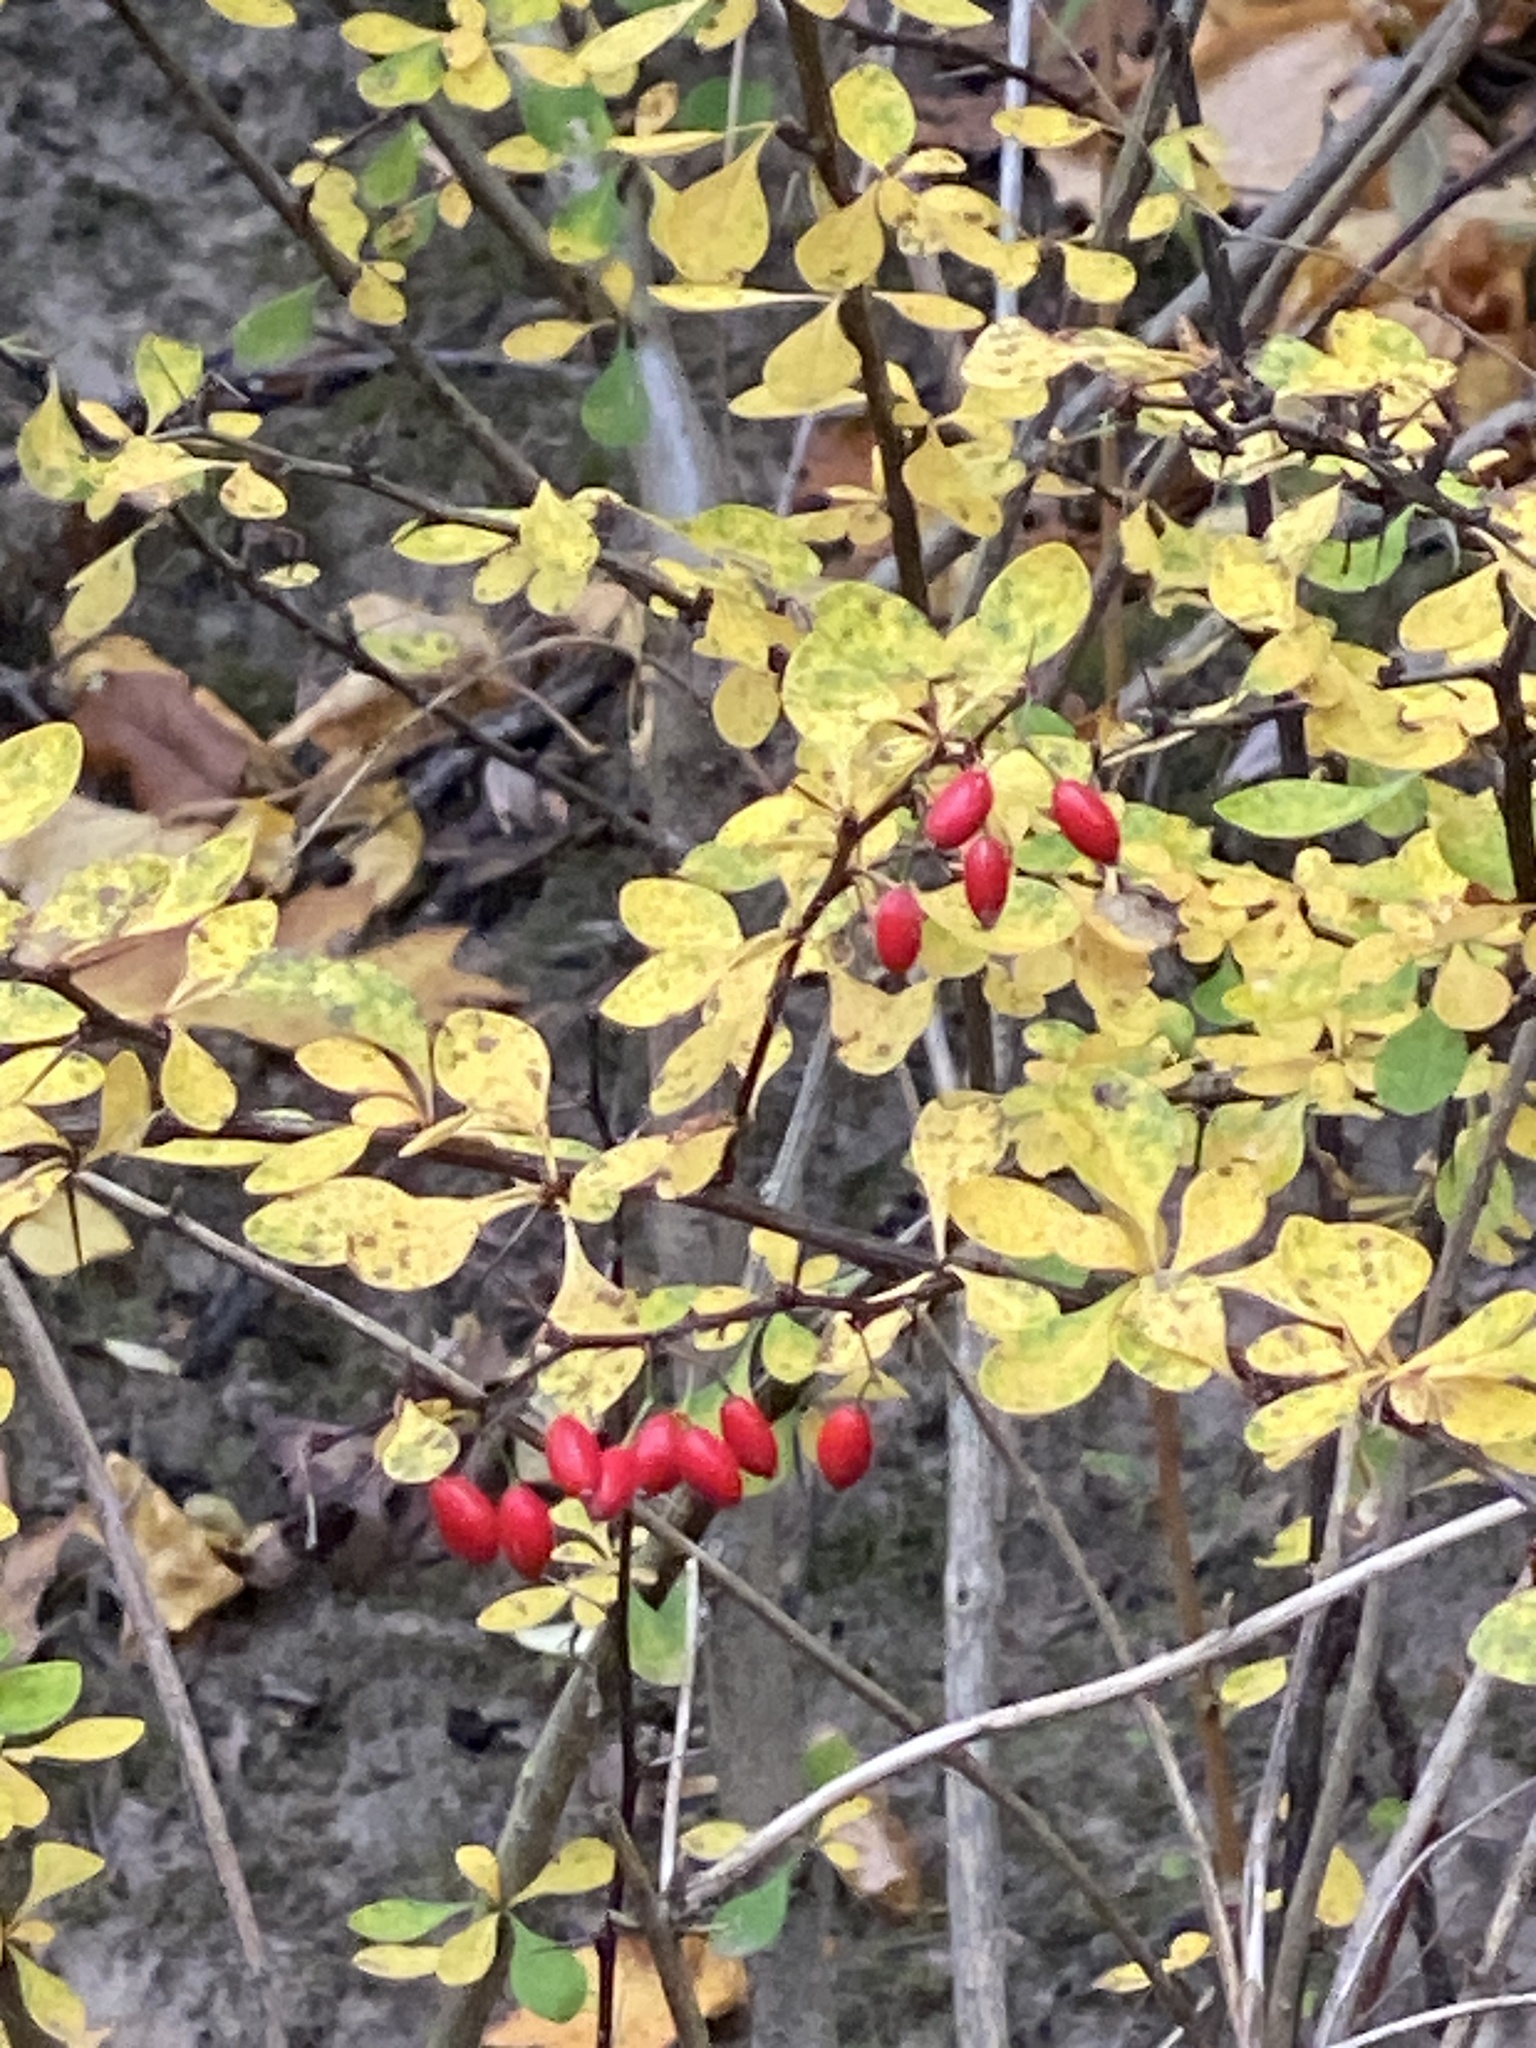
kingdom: Plantae
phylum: Tracheophyta
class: Magnoliopsida
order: Ranunculales
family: Berberidaceae
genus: Berberis
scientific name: Berberis thunbergii
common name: Japanese barberry
